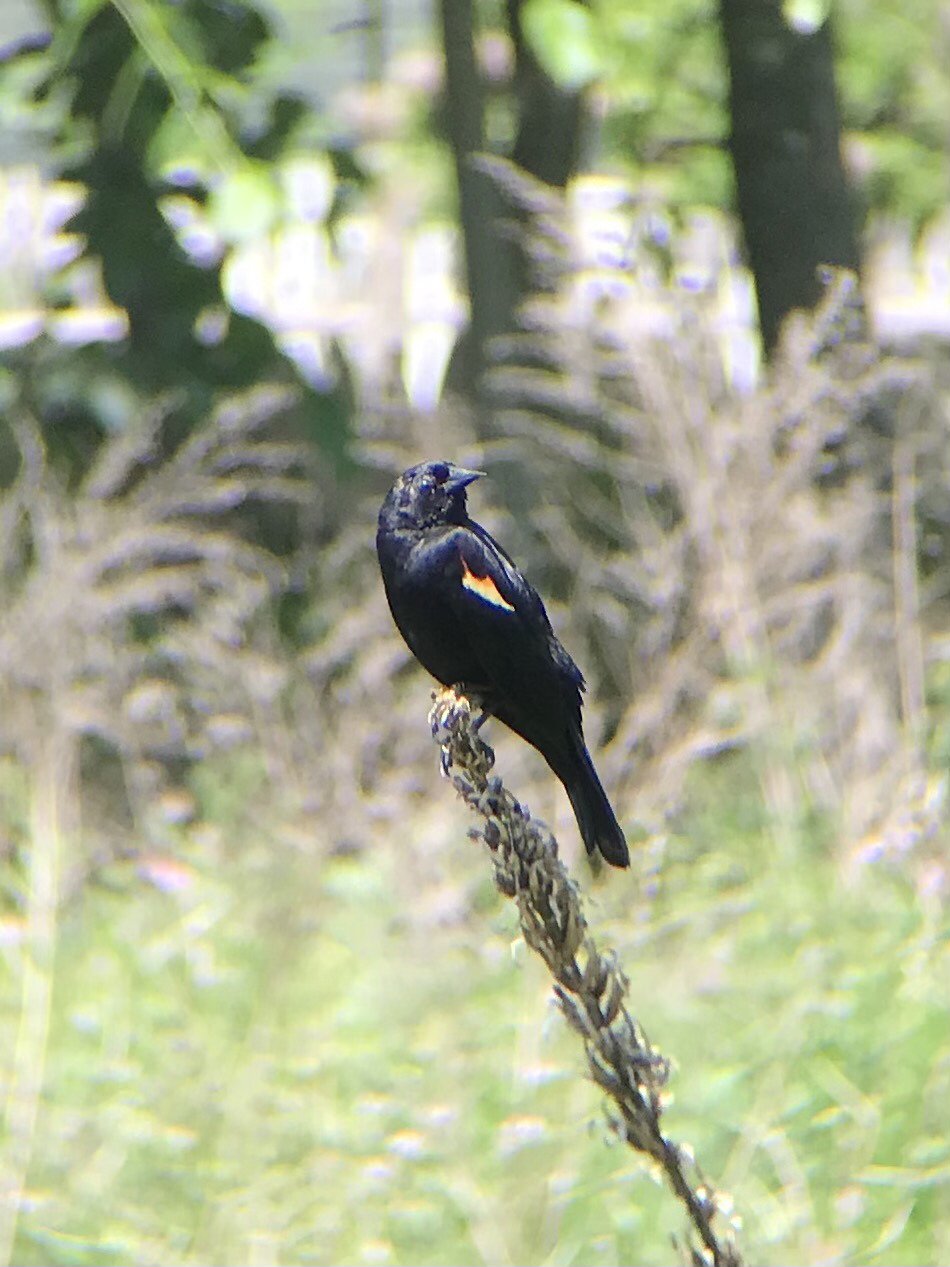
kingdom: Animalia
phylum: Chordata
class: Aves
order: Passeriformes
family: Icteridae
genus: Agelaius
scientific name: Agelaius phoeniceus
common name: Red-winged blackbird
